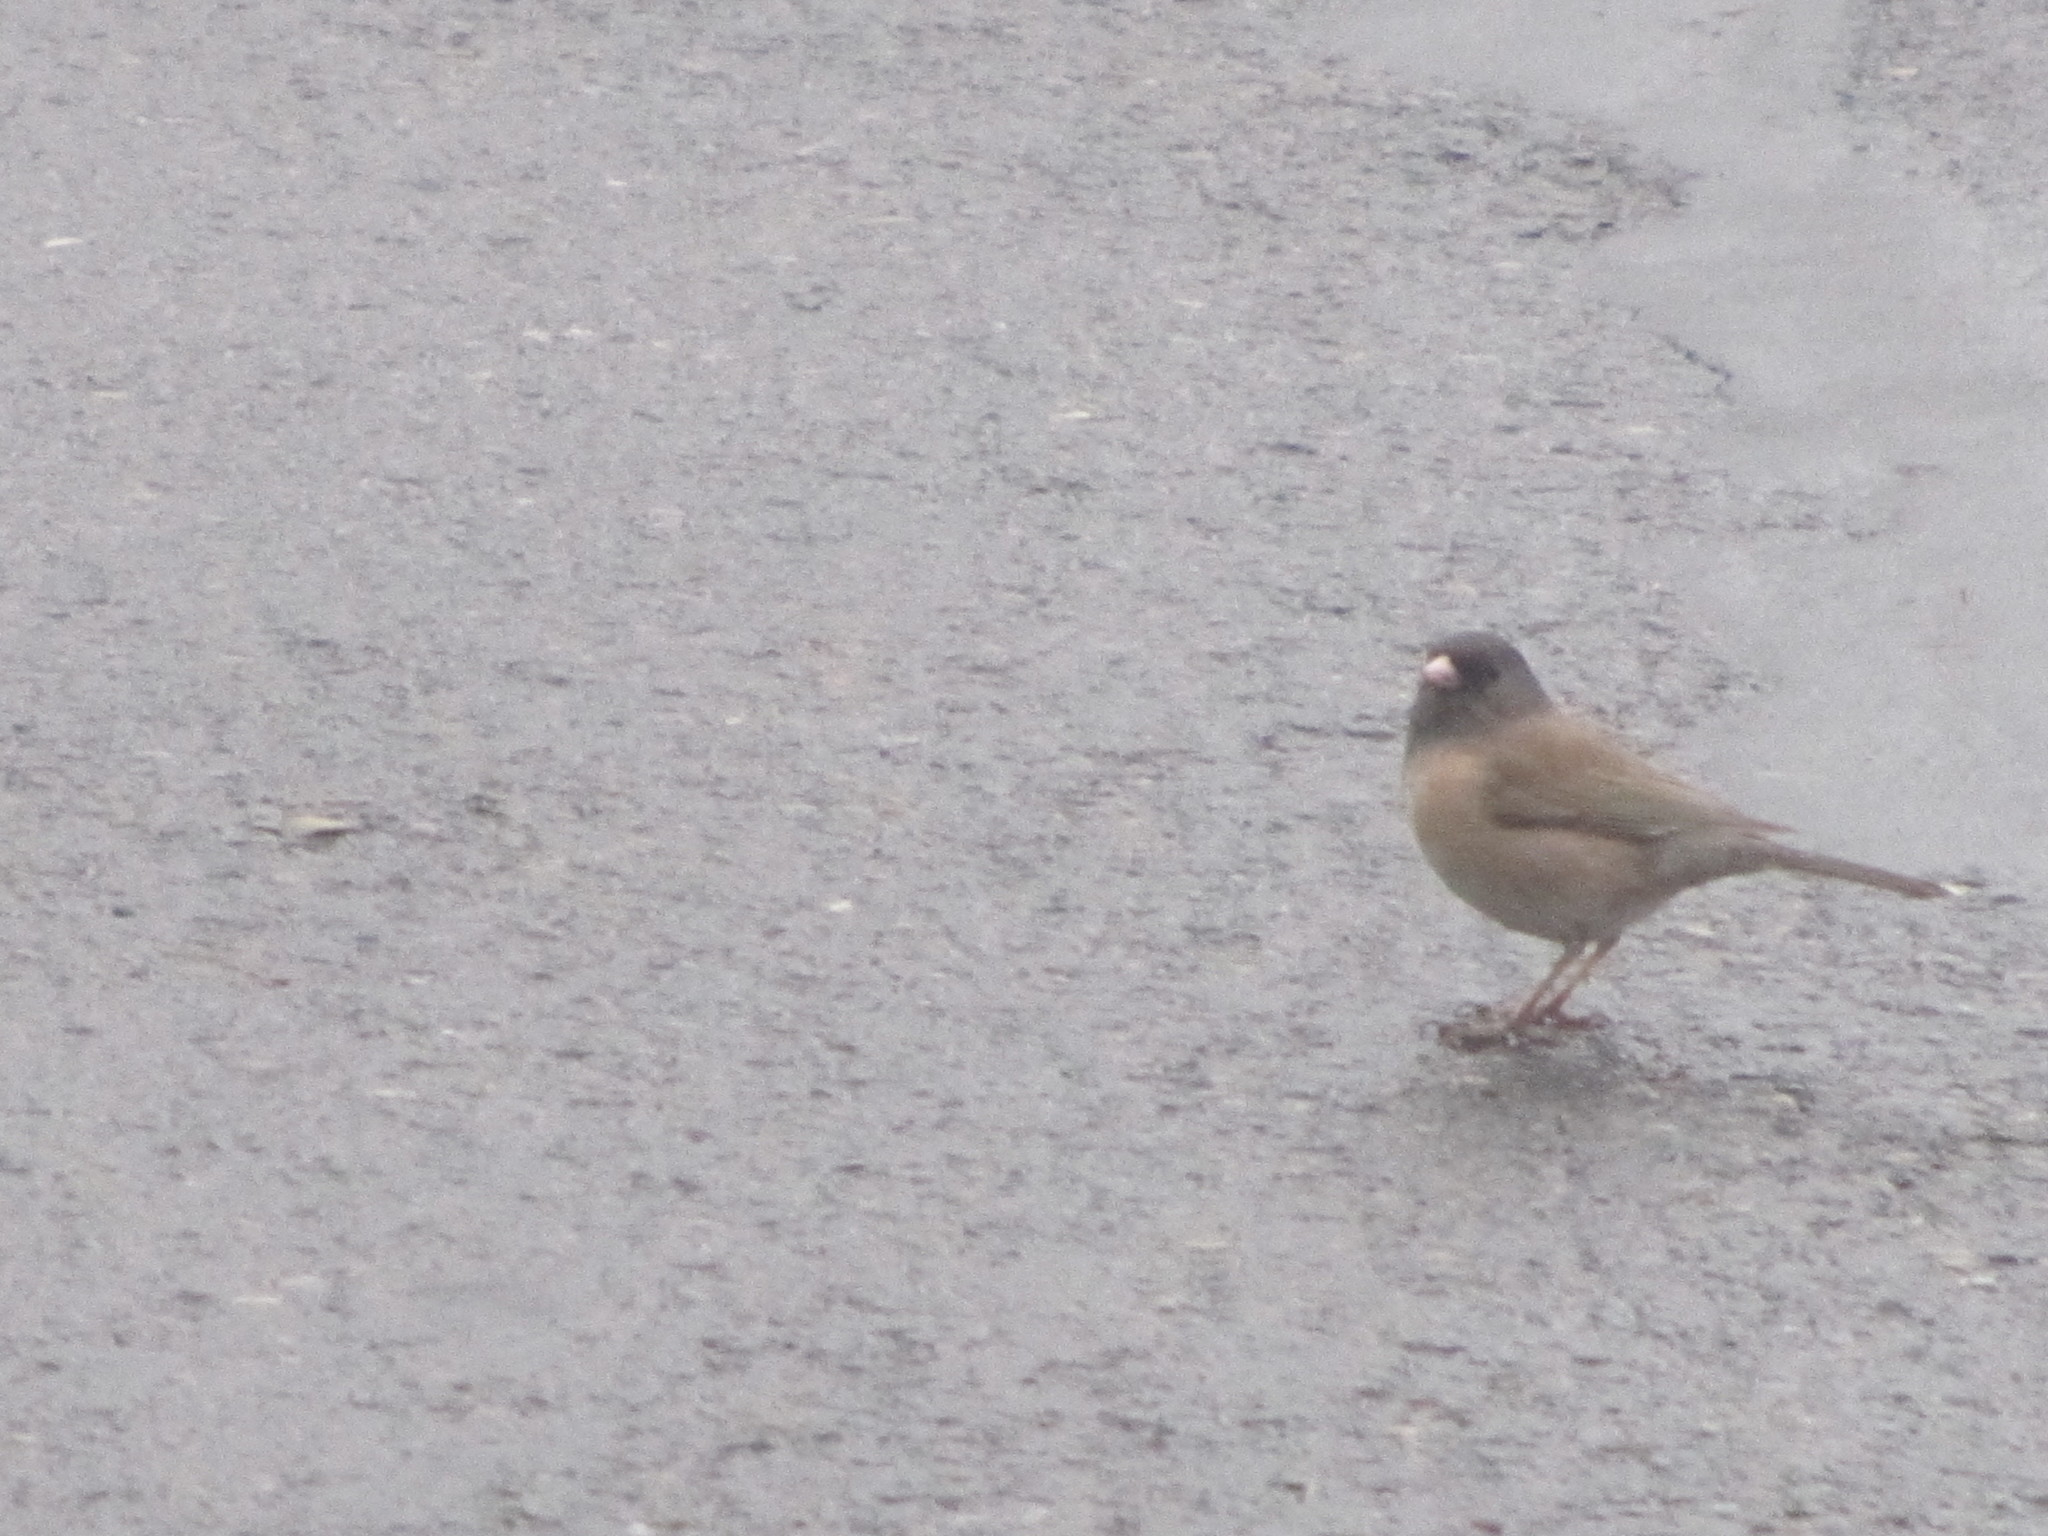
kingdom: Animalia
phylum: Chordata
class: Aves
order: Passeriformes
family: Passerellidae
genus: Junco
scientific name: Junco hyemalis
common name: Dark-eyed junco
